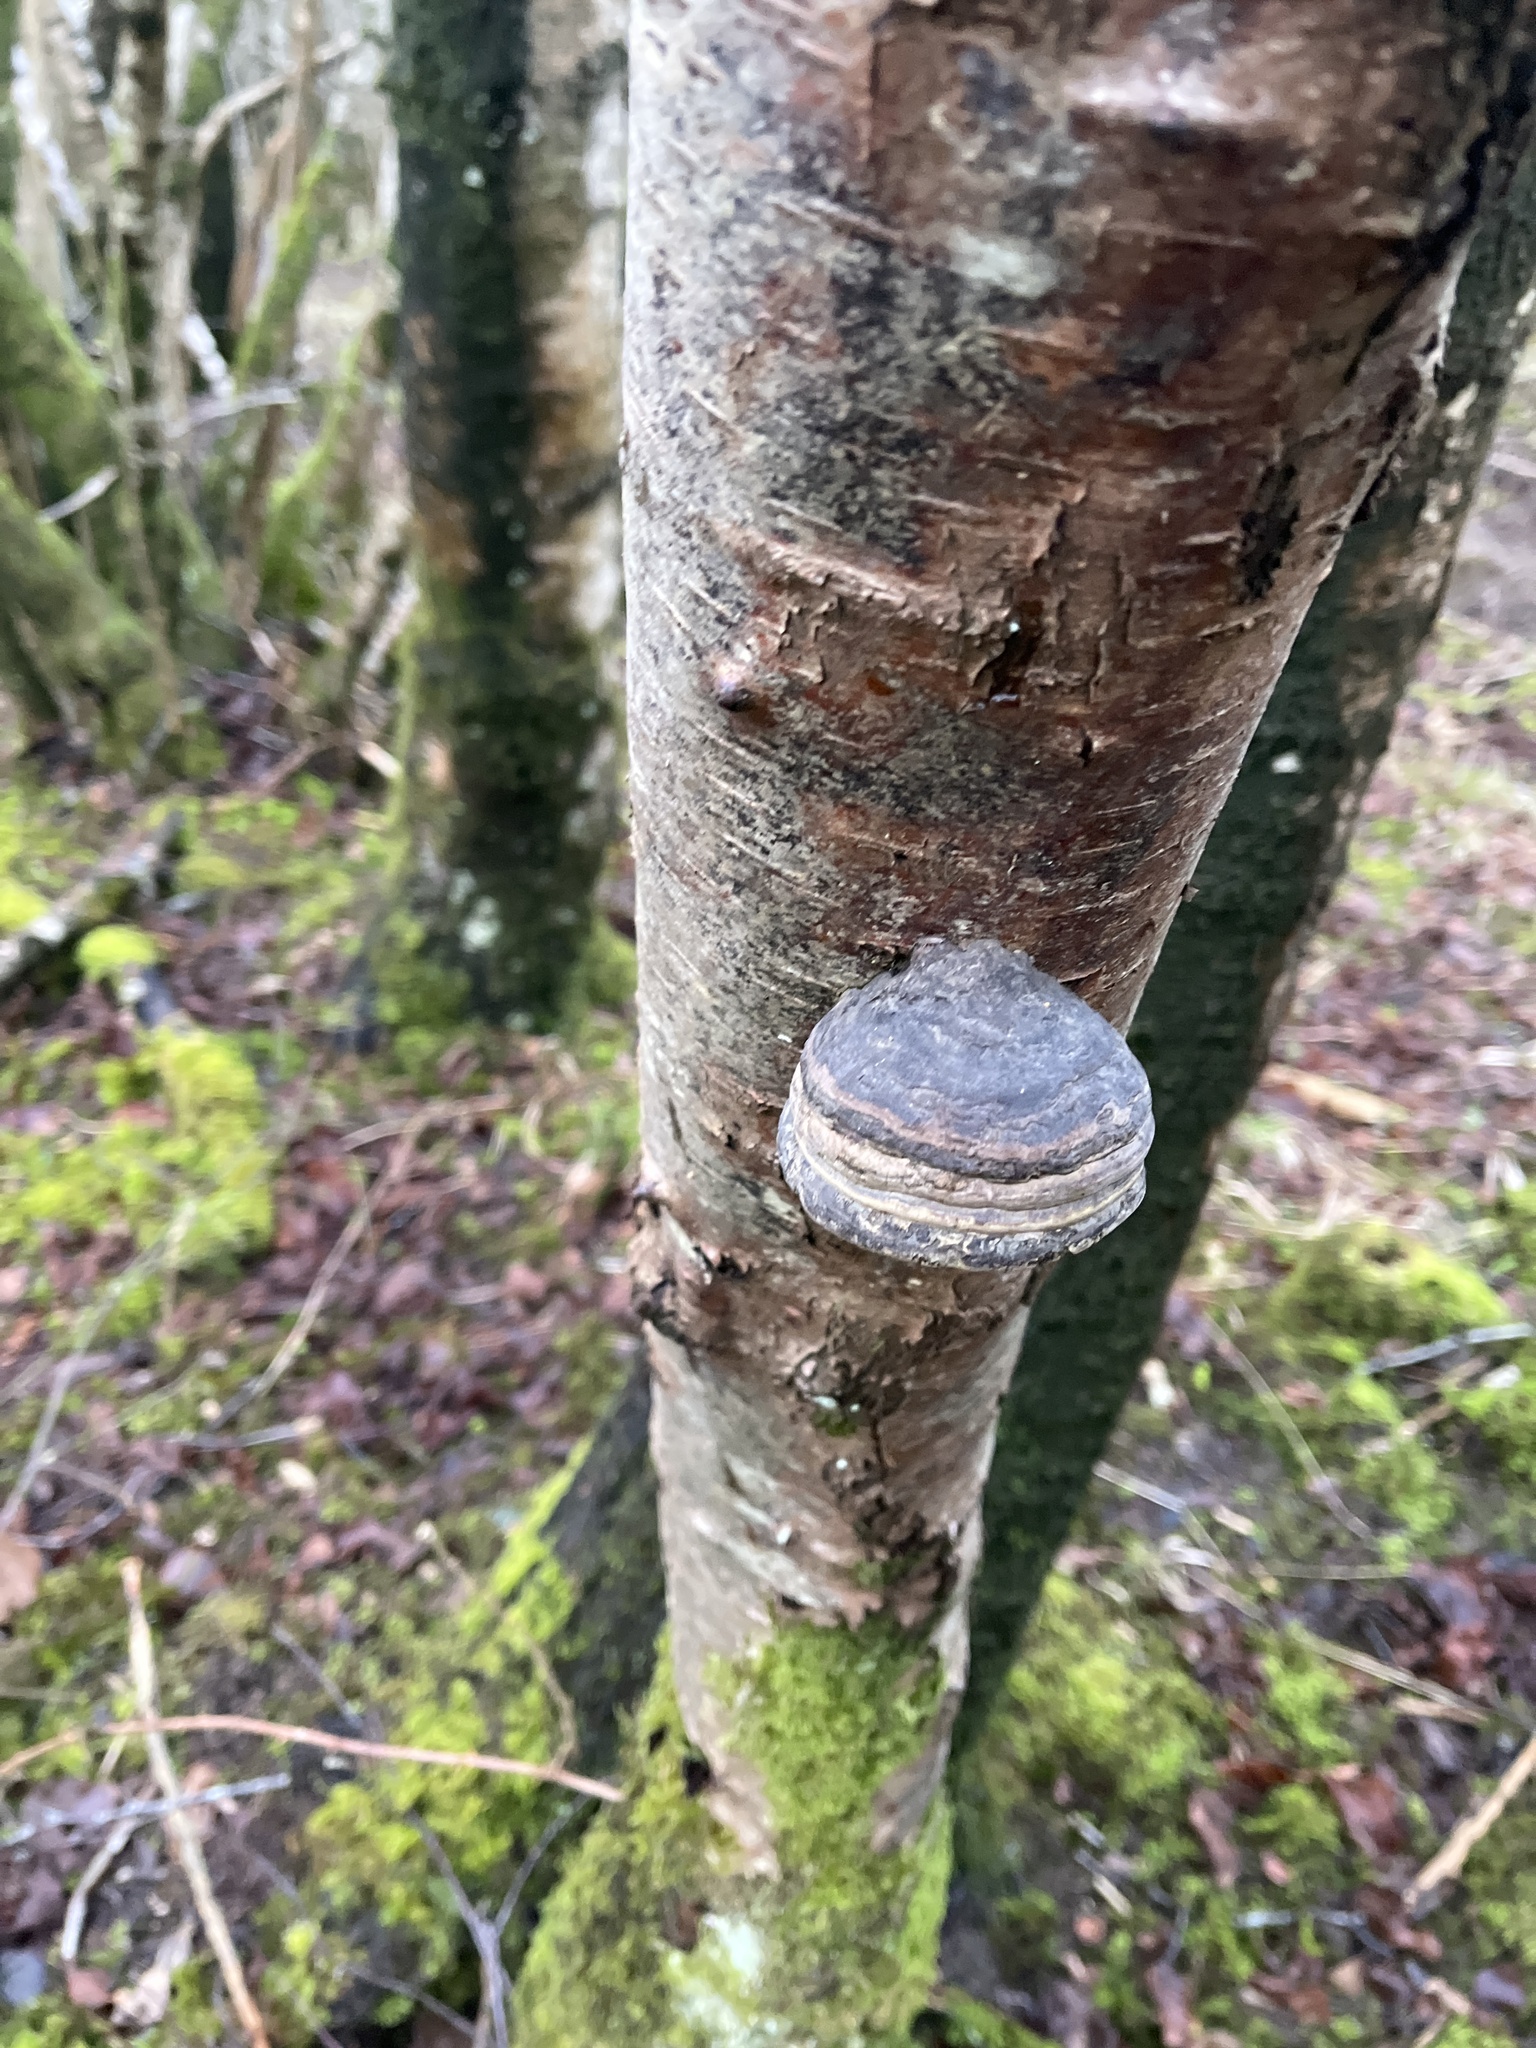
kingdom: Fungi
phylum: Basidiomycota
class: Agaricomycetes
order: Polyporales
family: Polyporaceae
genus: Fomes
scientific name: Fomes fomentarius
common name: Hoof fungus
